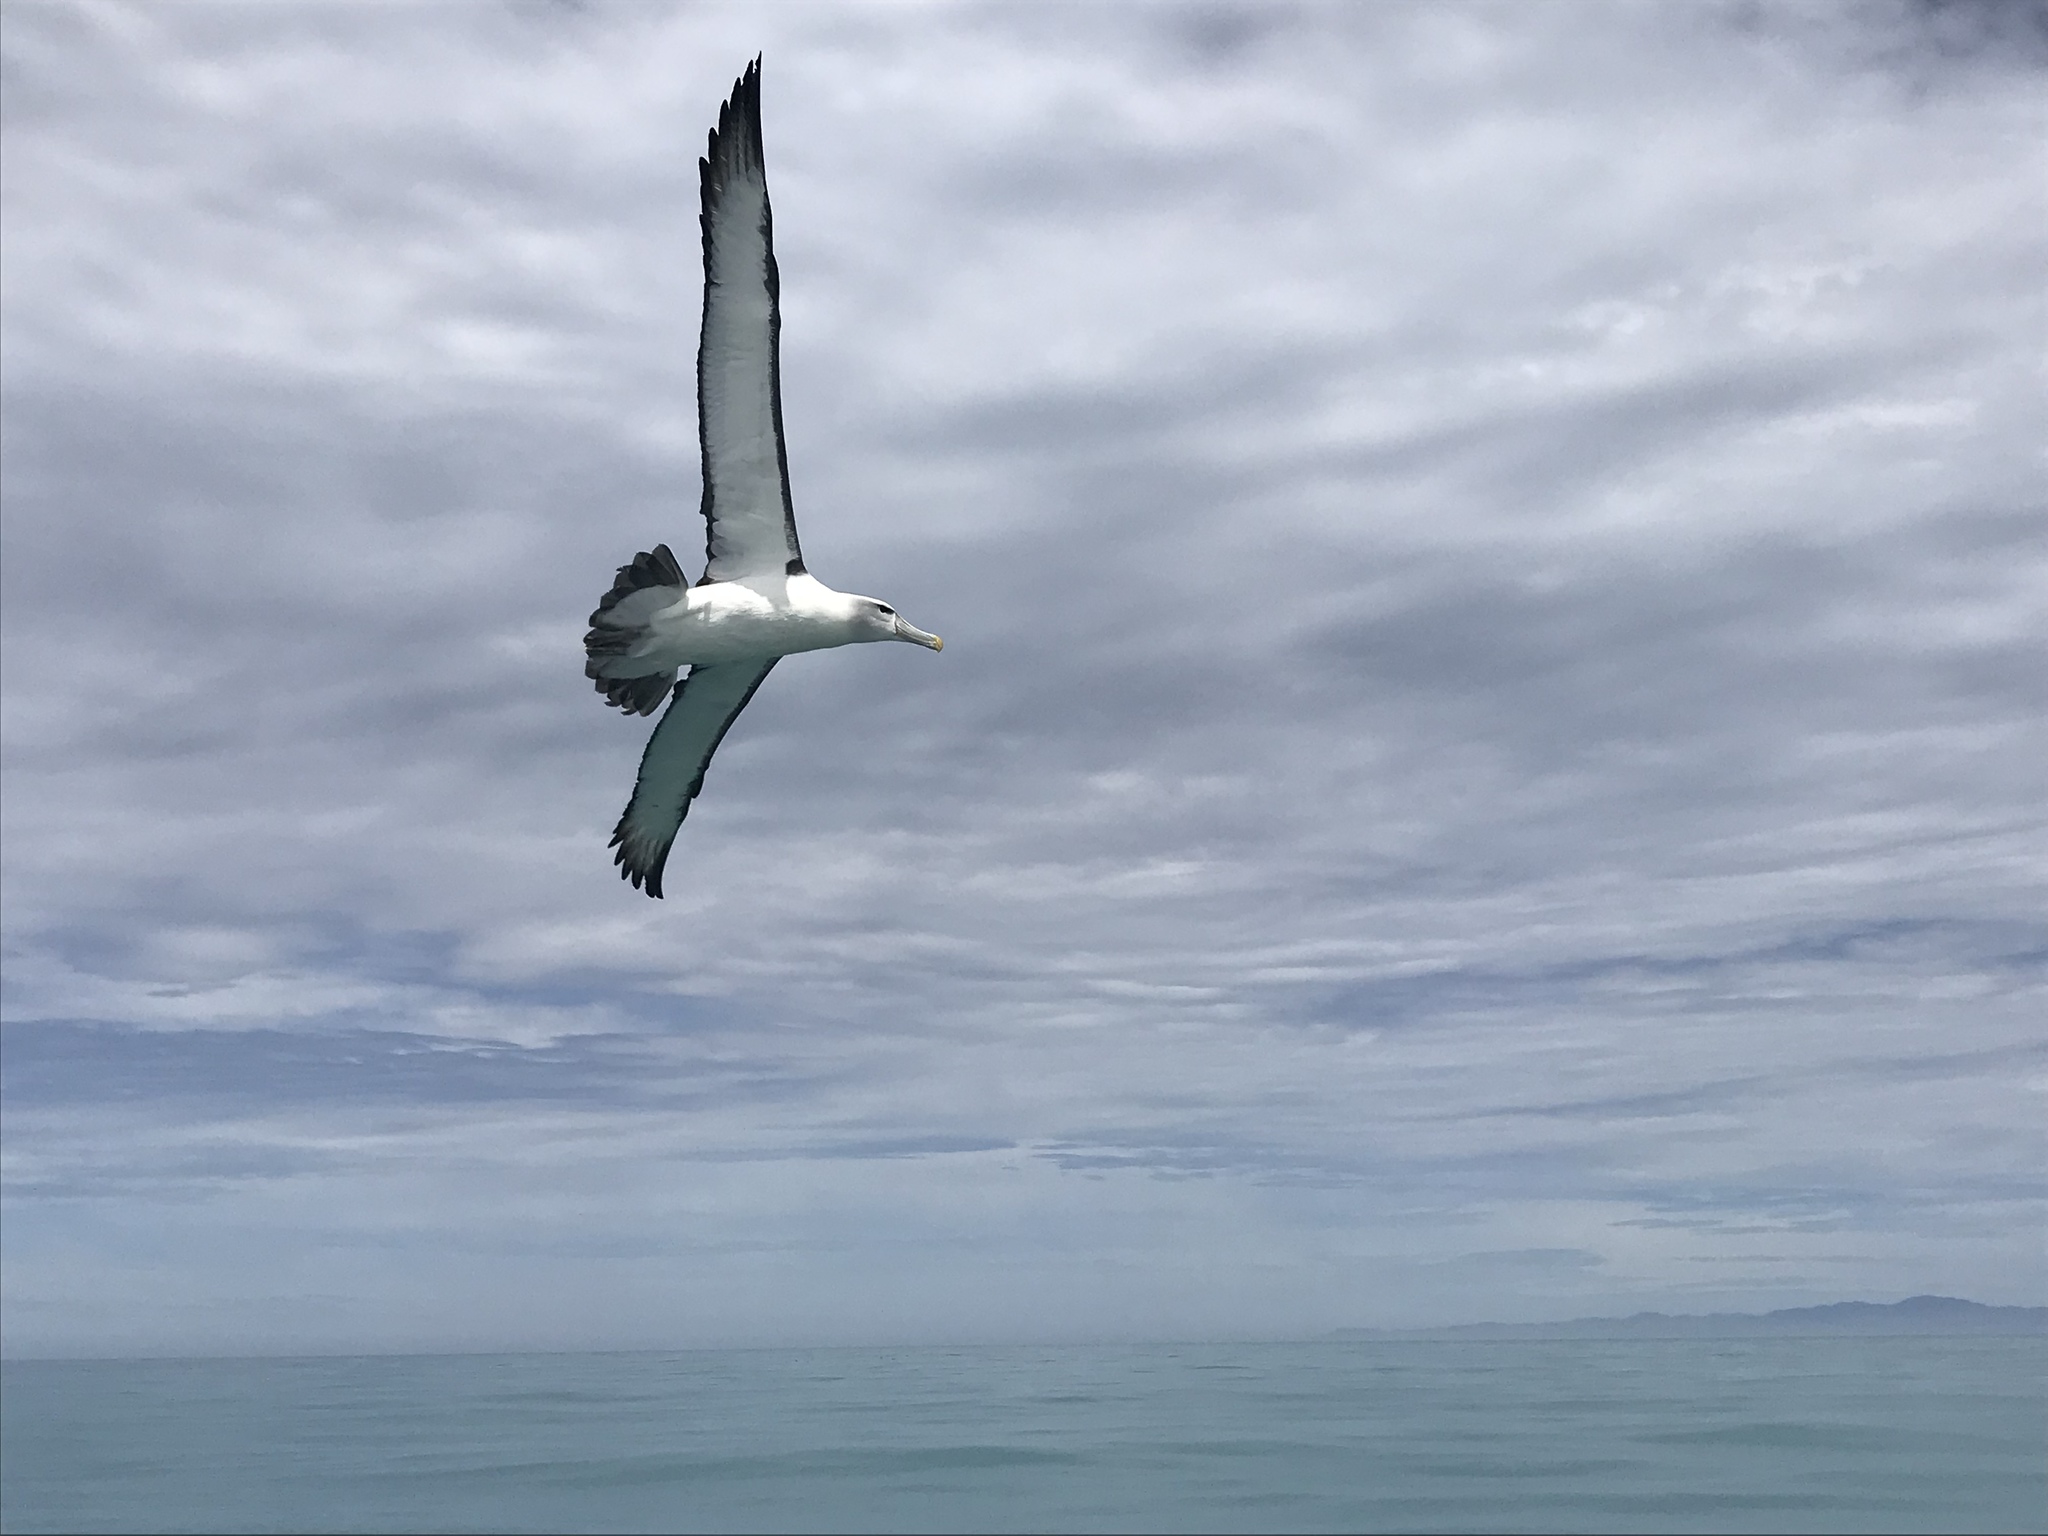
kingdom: Animalia
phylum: Chordata
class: Aves
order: Procellariiformes
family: Diomedeidae
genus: Thalassarche
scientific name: Thalassarche cauta
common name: Shy albatross
